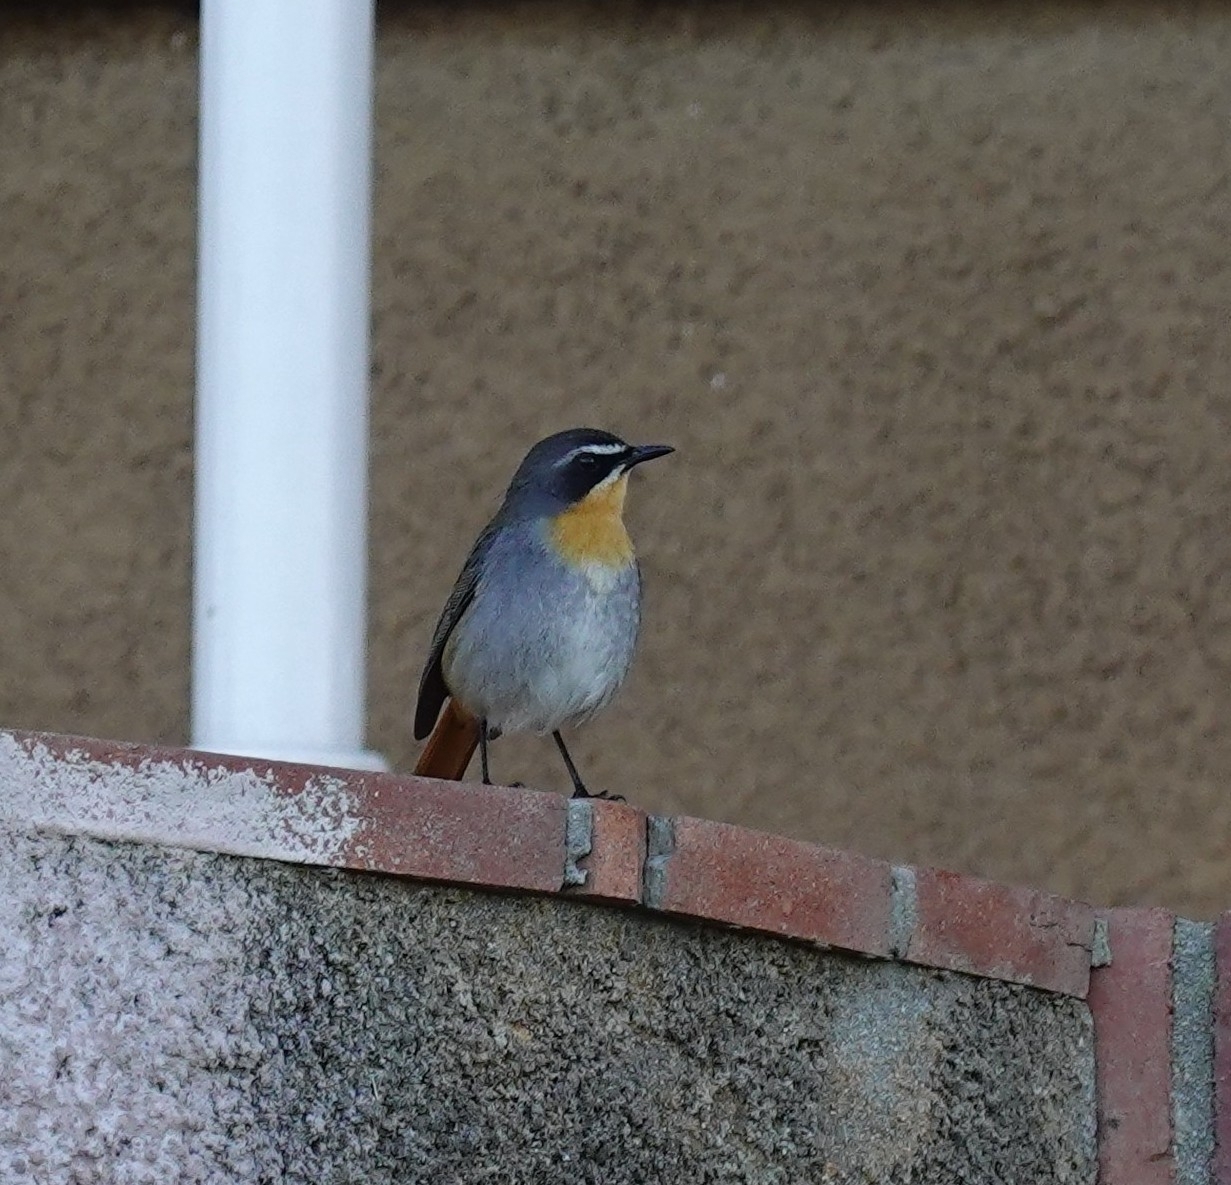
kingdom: Animalia
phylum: Chordata
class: Aves
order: Passeriformes
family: Muscicapidae
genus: Cossypha
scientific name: Cossypha caffra
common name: Cape robin-chat
